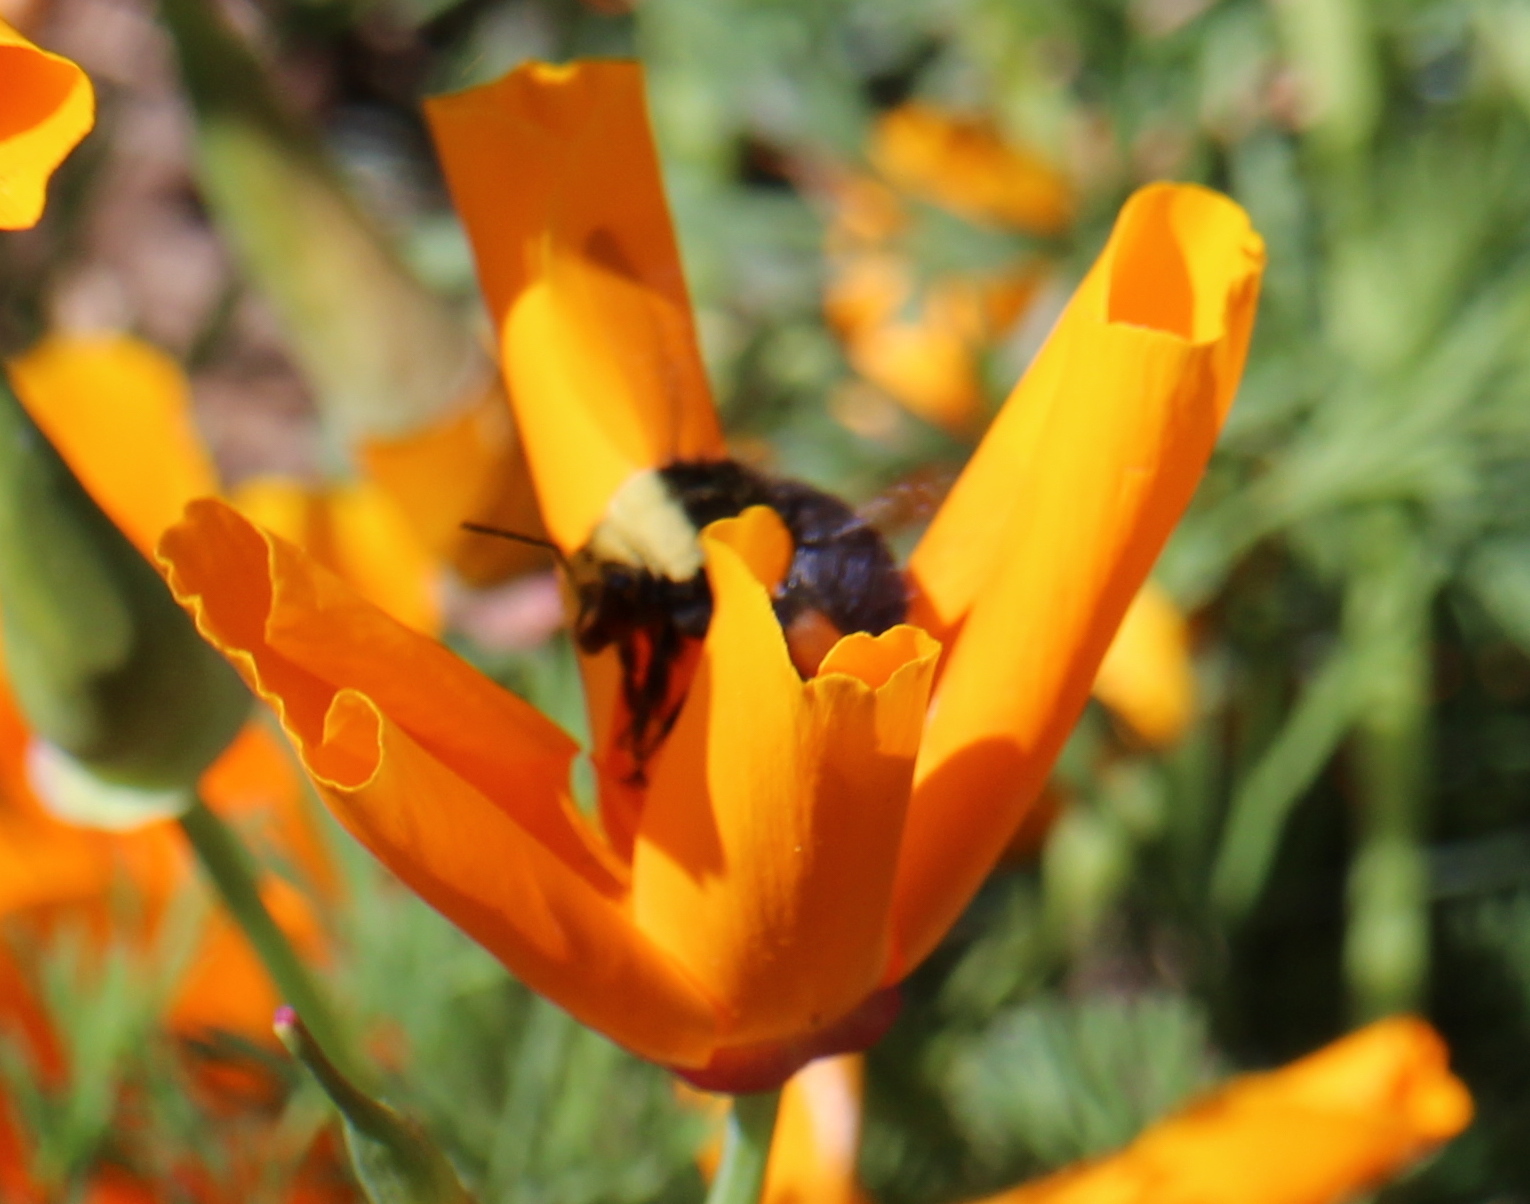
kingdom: Animalia
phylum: Arthropoda
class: Insecta
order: Hymenoptera
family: Apidae
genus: Bombus
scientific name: Bombus vosnesenskii
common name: Vosnesensky bumble bee
